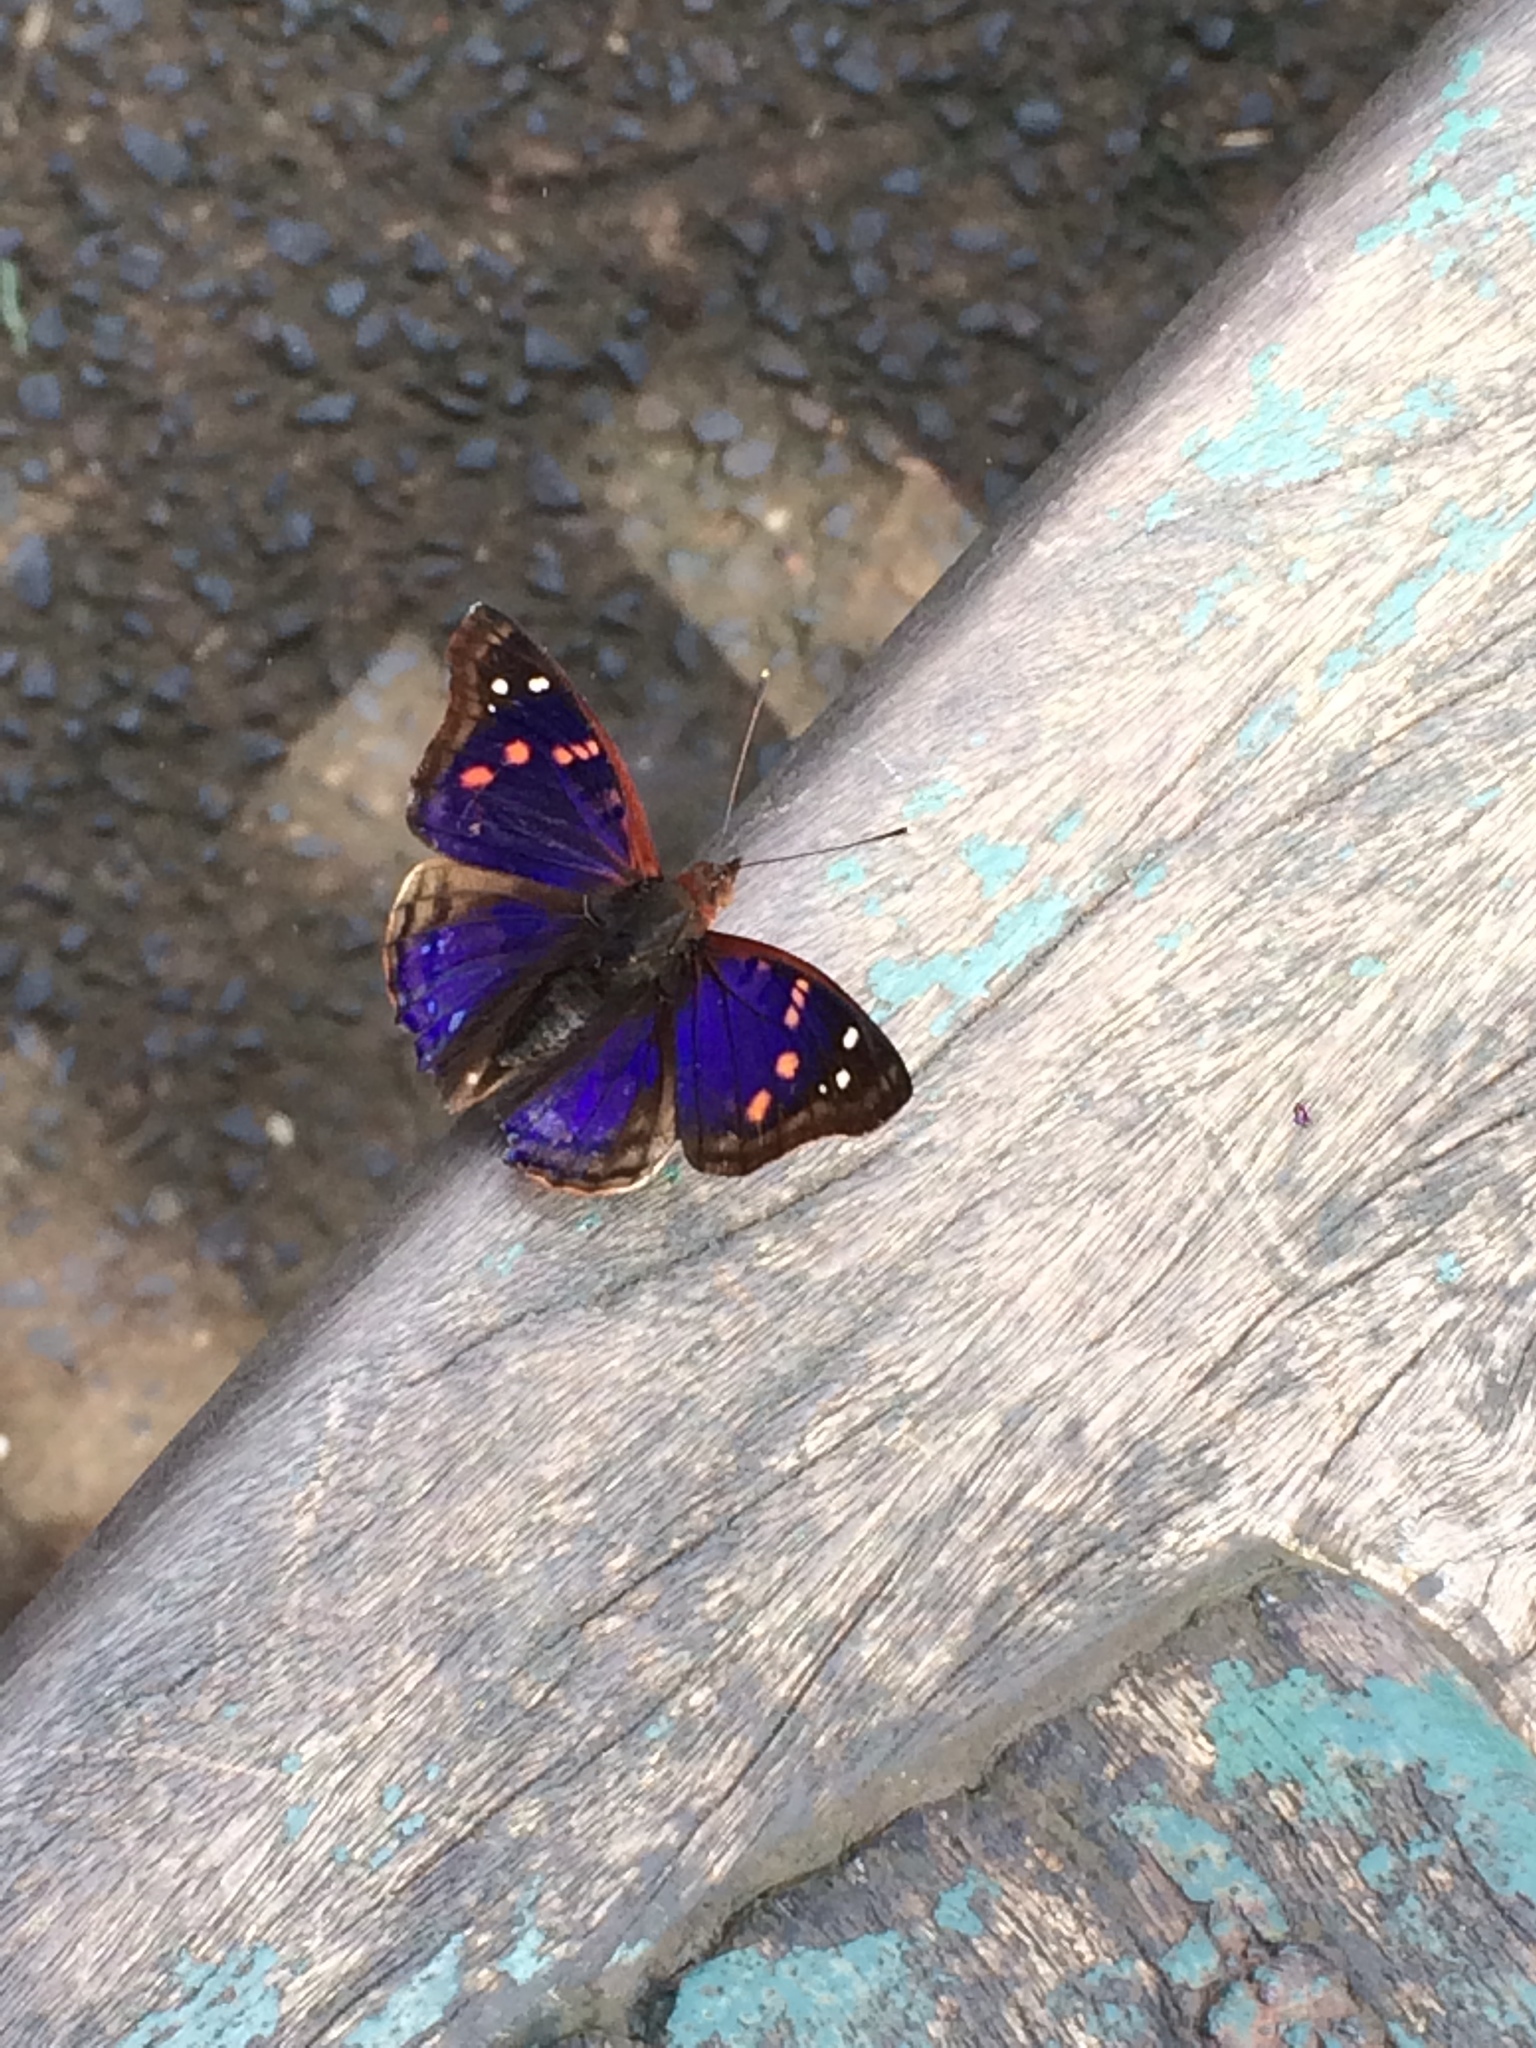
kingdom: Animalia
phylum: Arthropoda
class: Insecta
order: Lepidoptera
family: Nymphalidae
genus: Doxocopa
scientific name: Doxocopa agathina
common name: Agathina emperor
